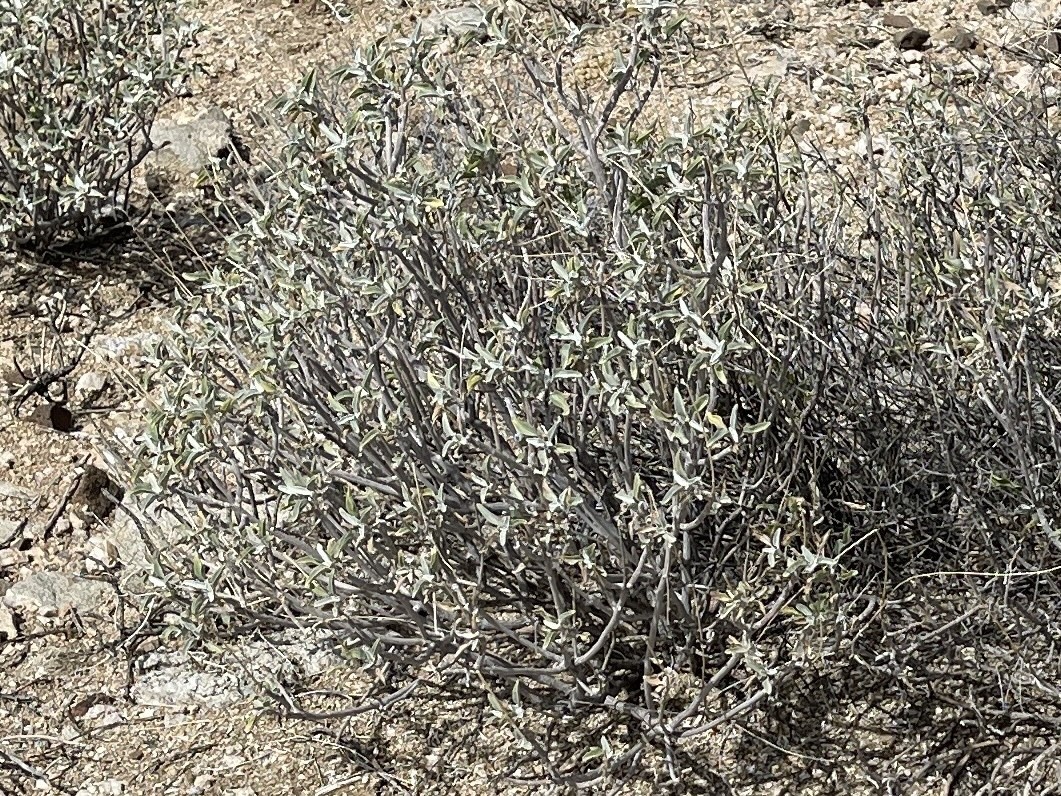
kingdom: Plantae
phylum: Tracheophyta
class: Magnoliopsida
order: Asterales
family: Asteraceae
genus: Encelia
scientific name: Encelia farinosa
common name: Brittlebush
